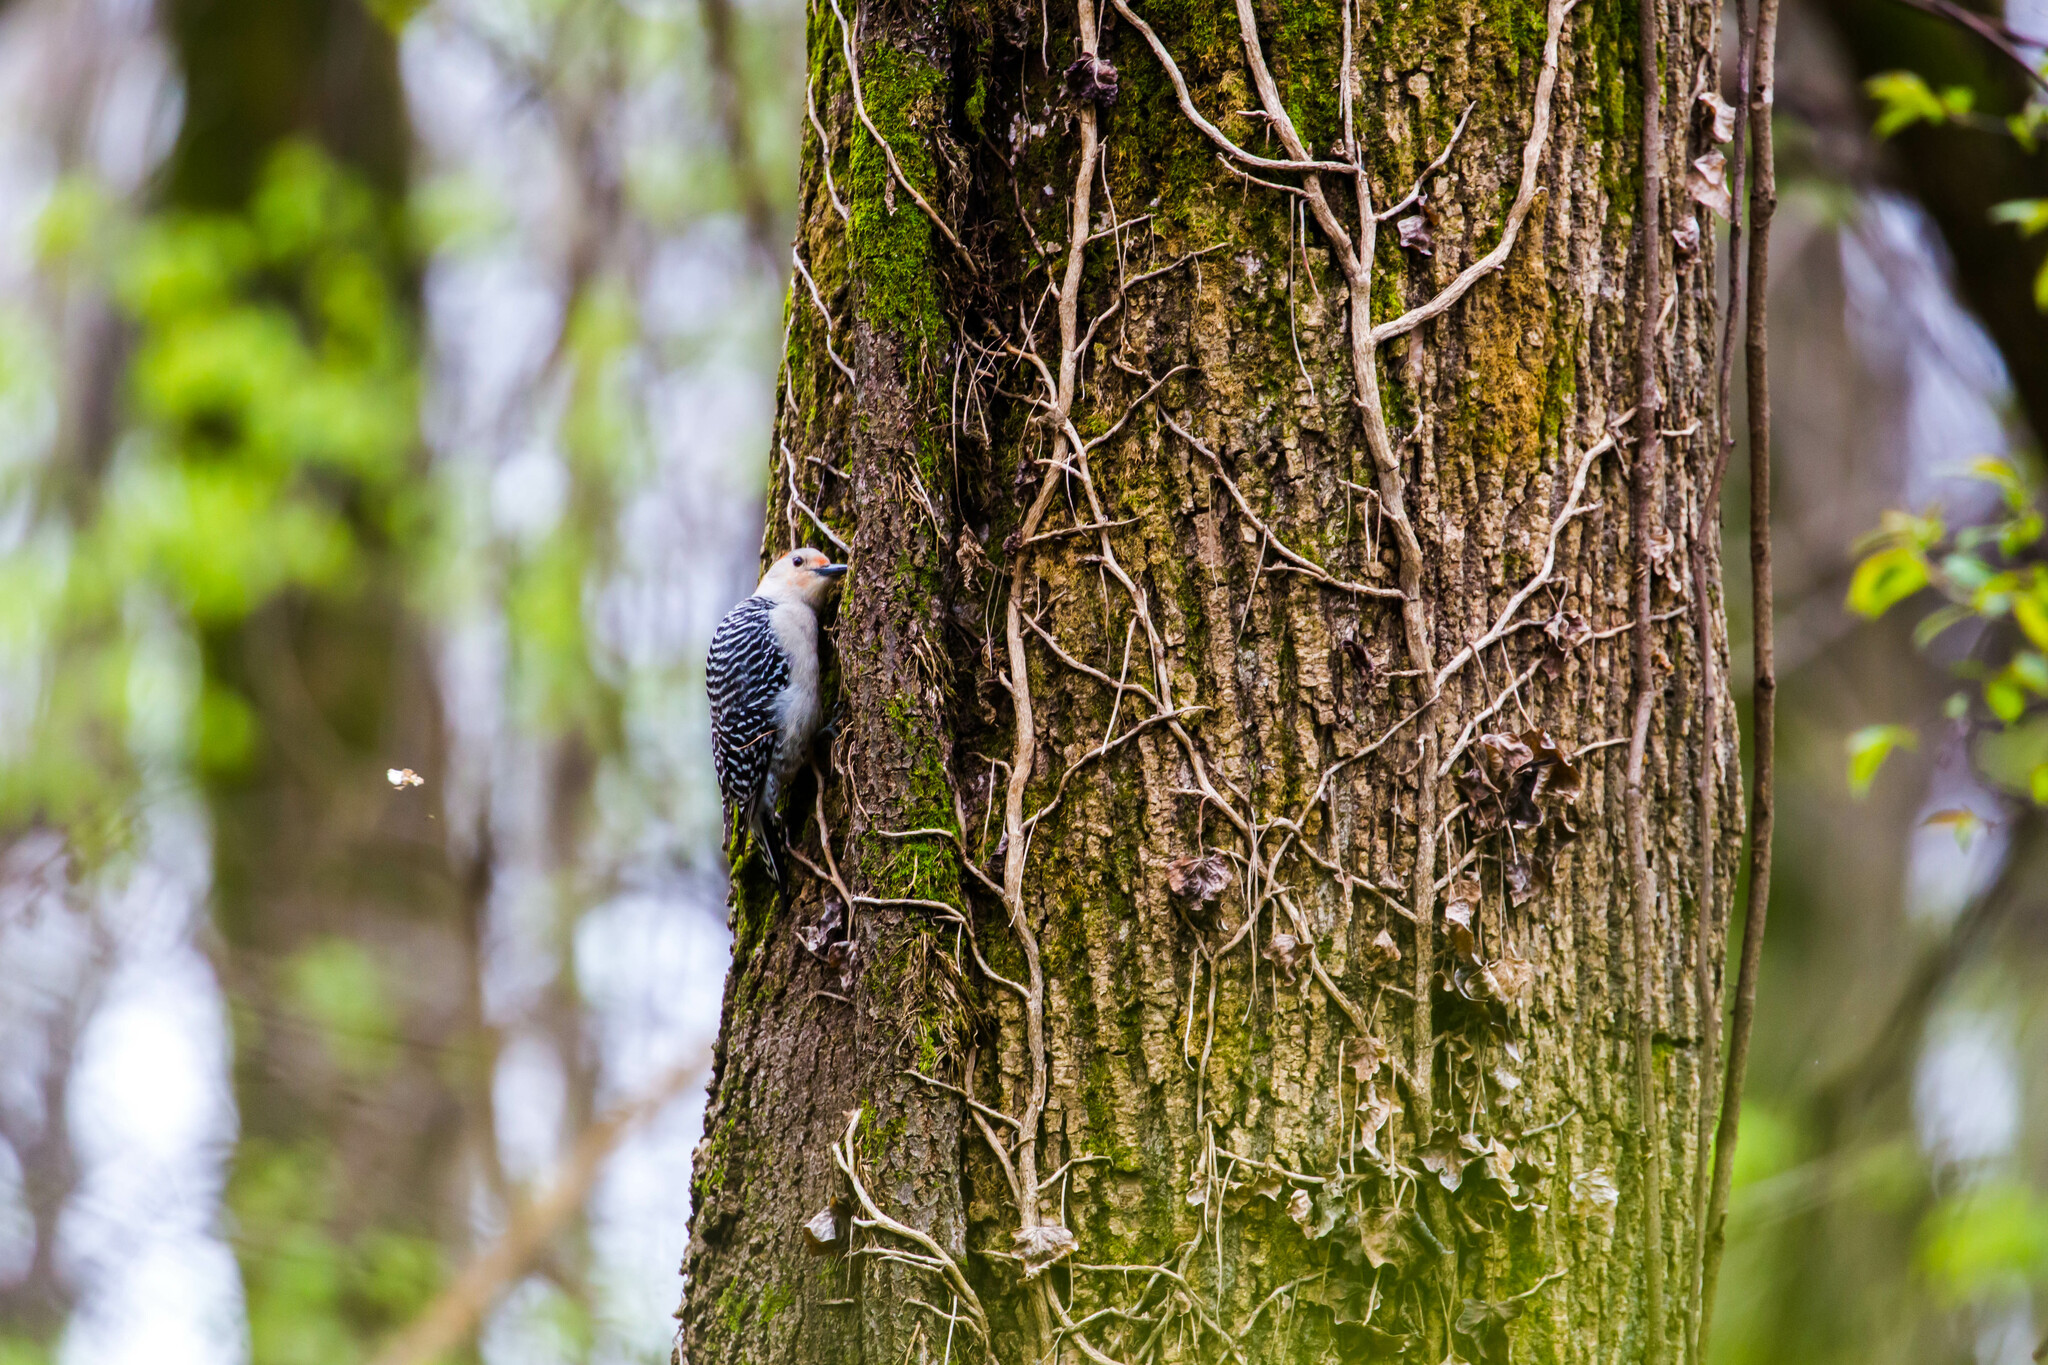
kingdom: Animalia
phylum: Chordata
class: Aves
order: Piciformes
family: Picidae
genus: Melanerpes
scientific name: Melanerpes carolinus
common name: Red-bellied woodpecker
